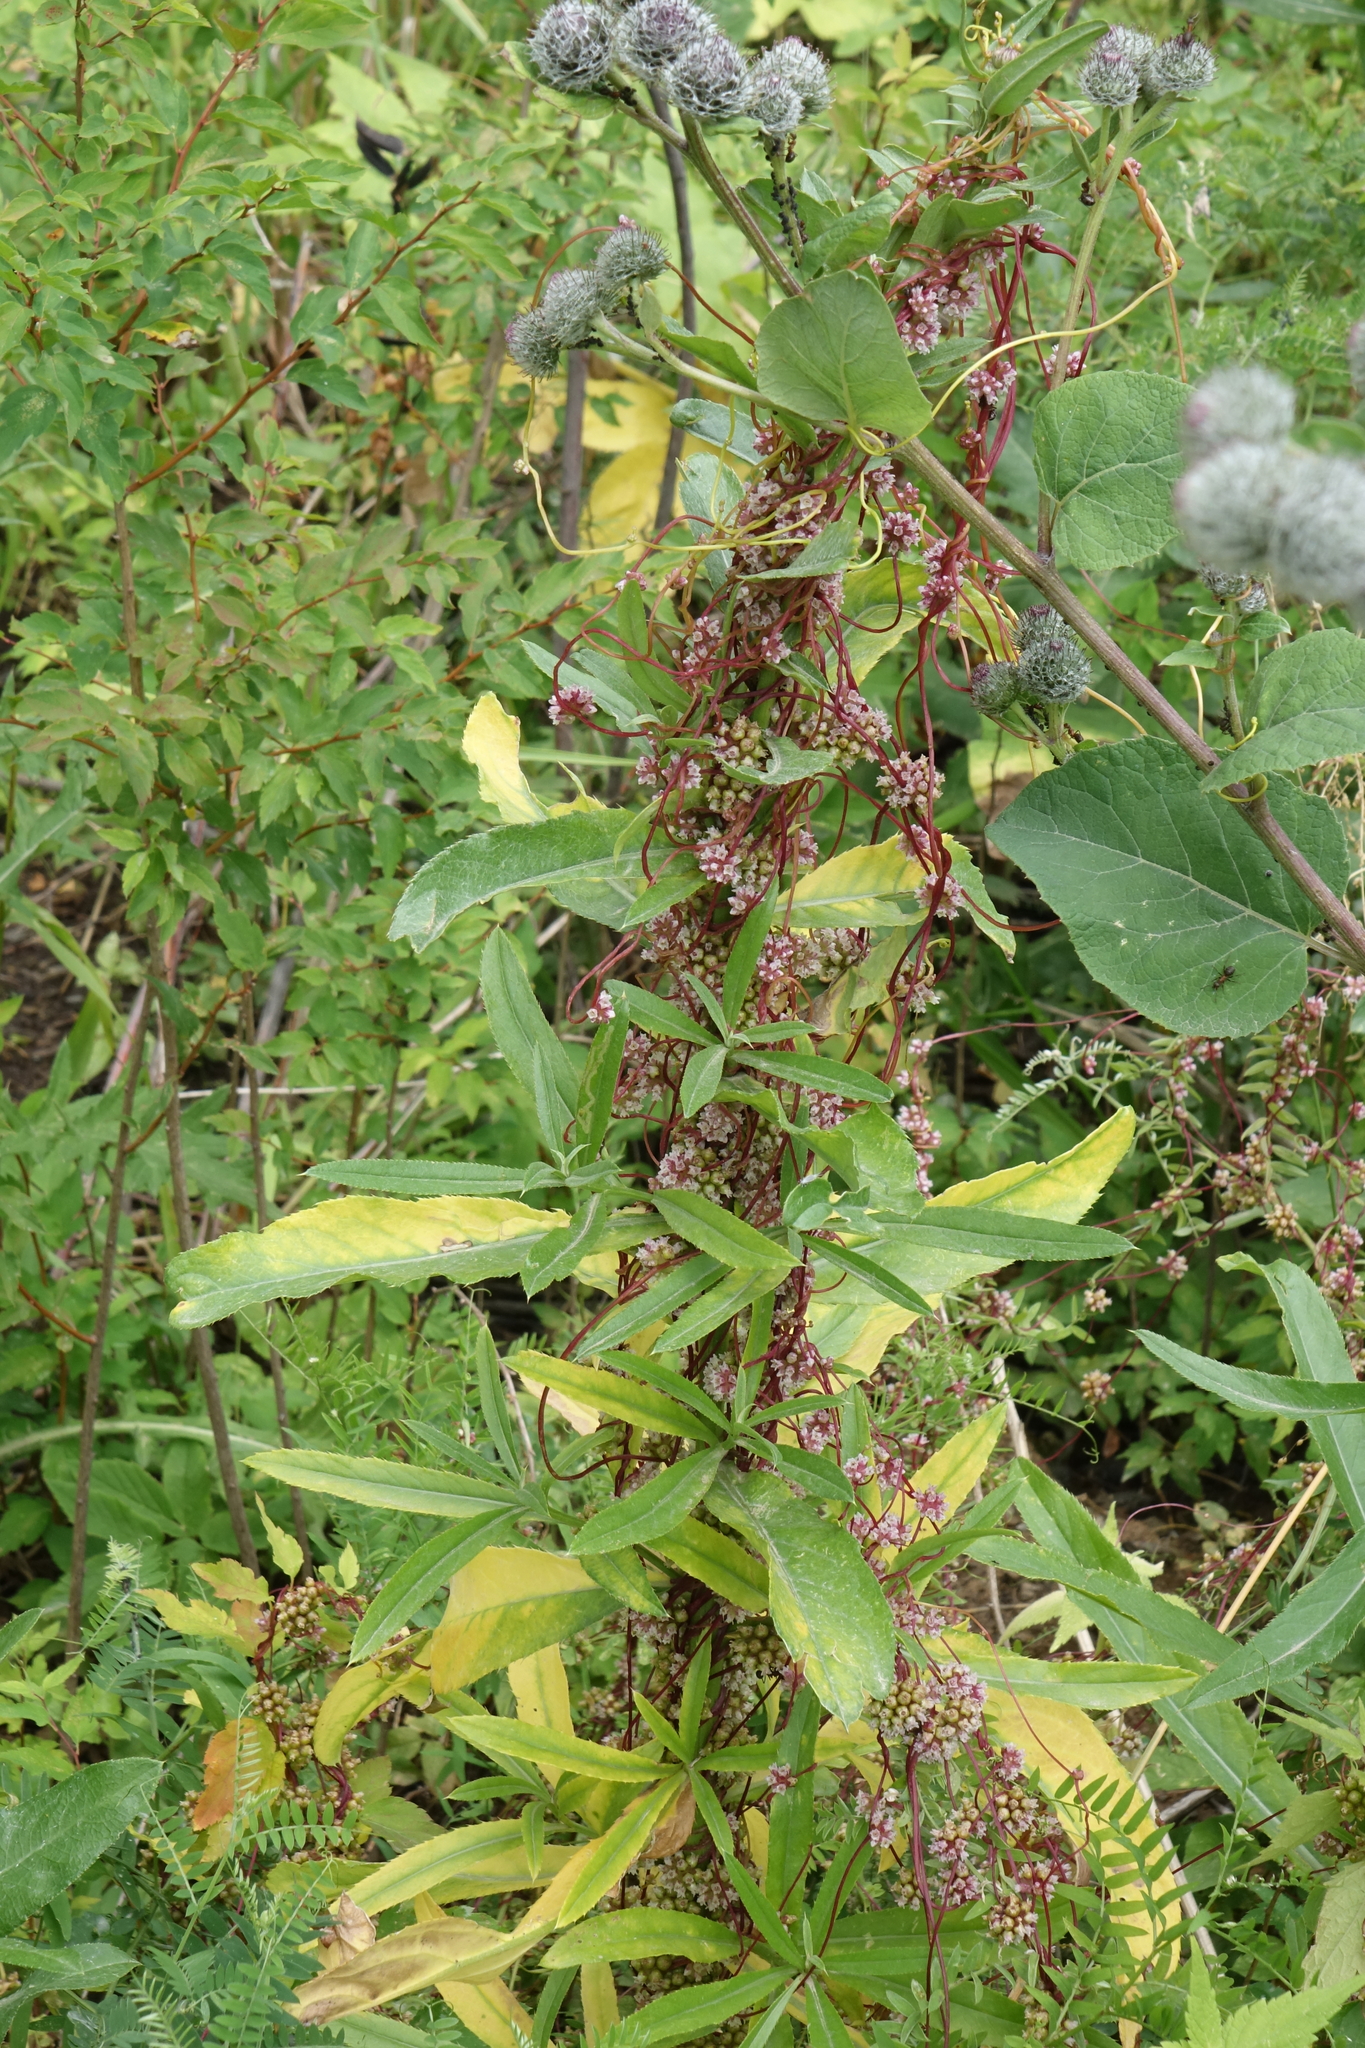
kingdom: Plantae
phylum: Tracheophyta
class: Magnoliopsida
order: Solanales
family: Convolvulaceae
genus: Cuscuta
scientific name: Cuscuta europaea
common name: Greater dodder
